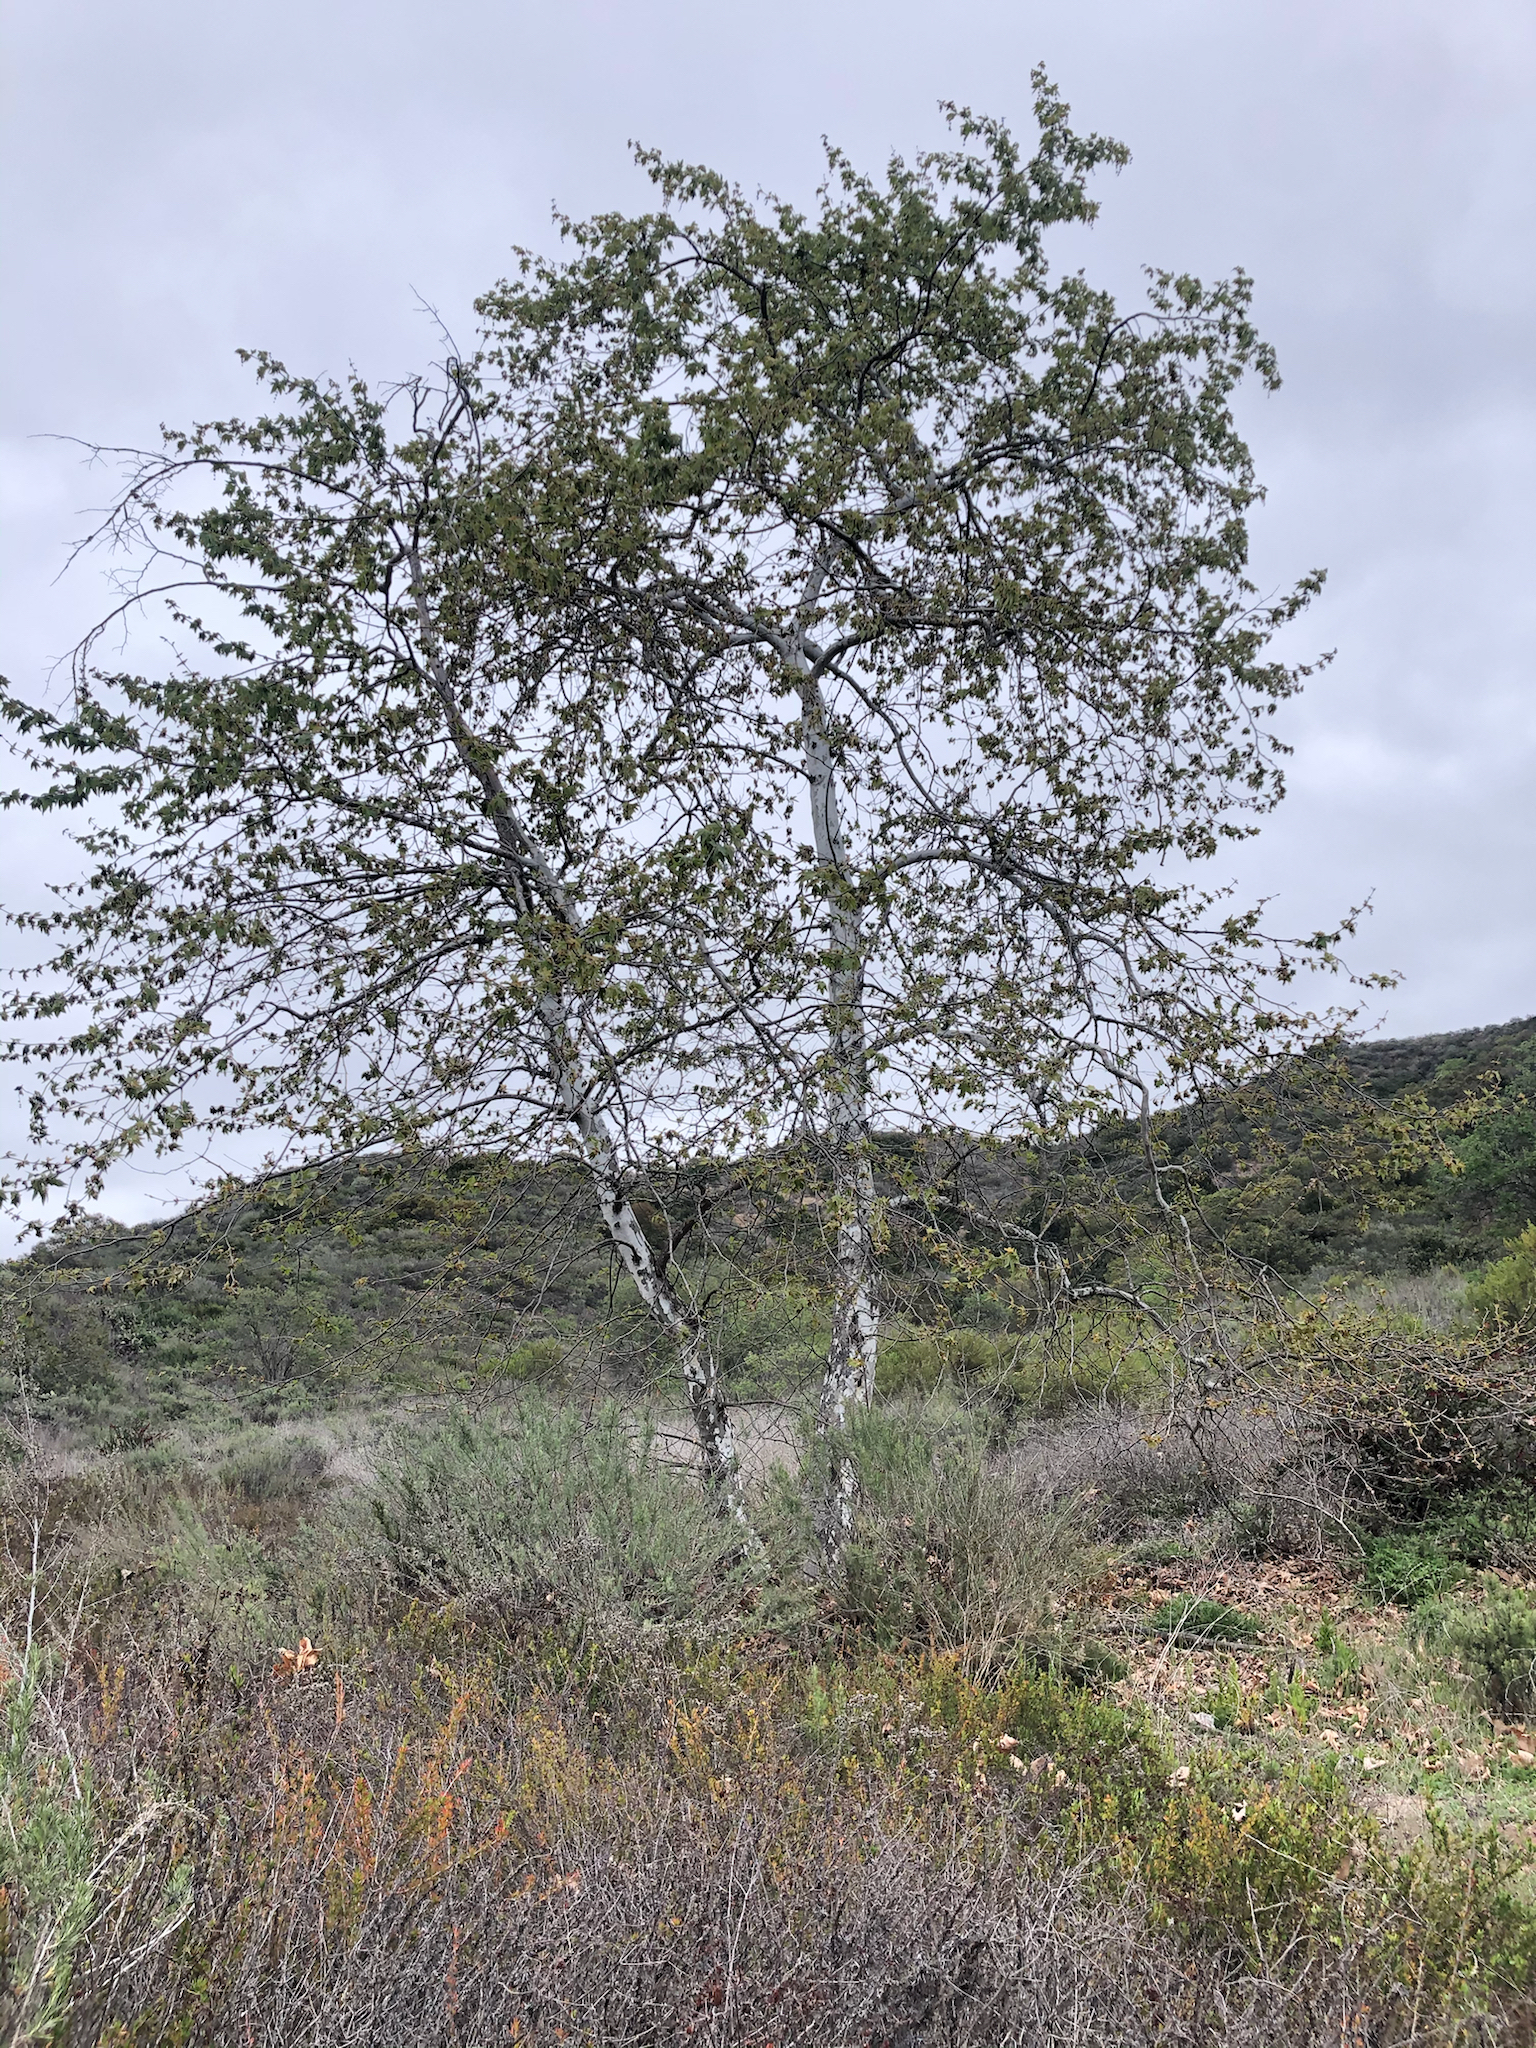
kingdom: Plantae
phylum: Tracheophyta
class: Magnoliopsida
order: Proteales
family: Platanaceae
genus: Platanus
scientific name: Platanus racemosa
